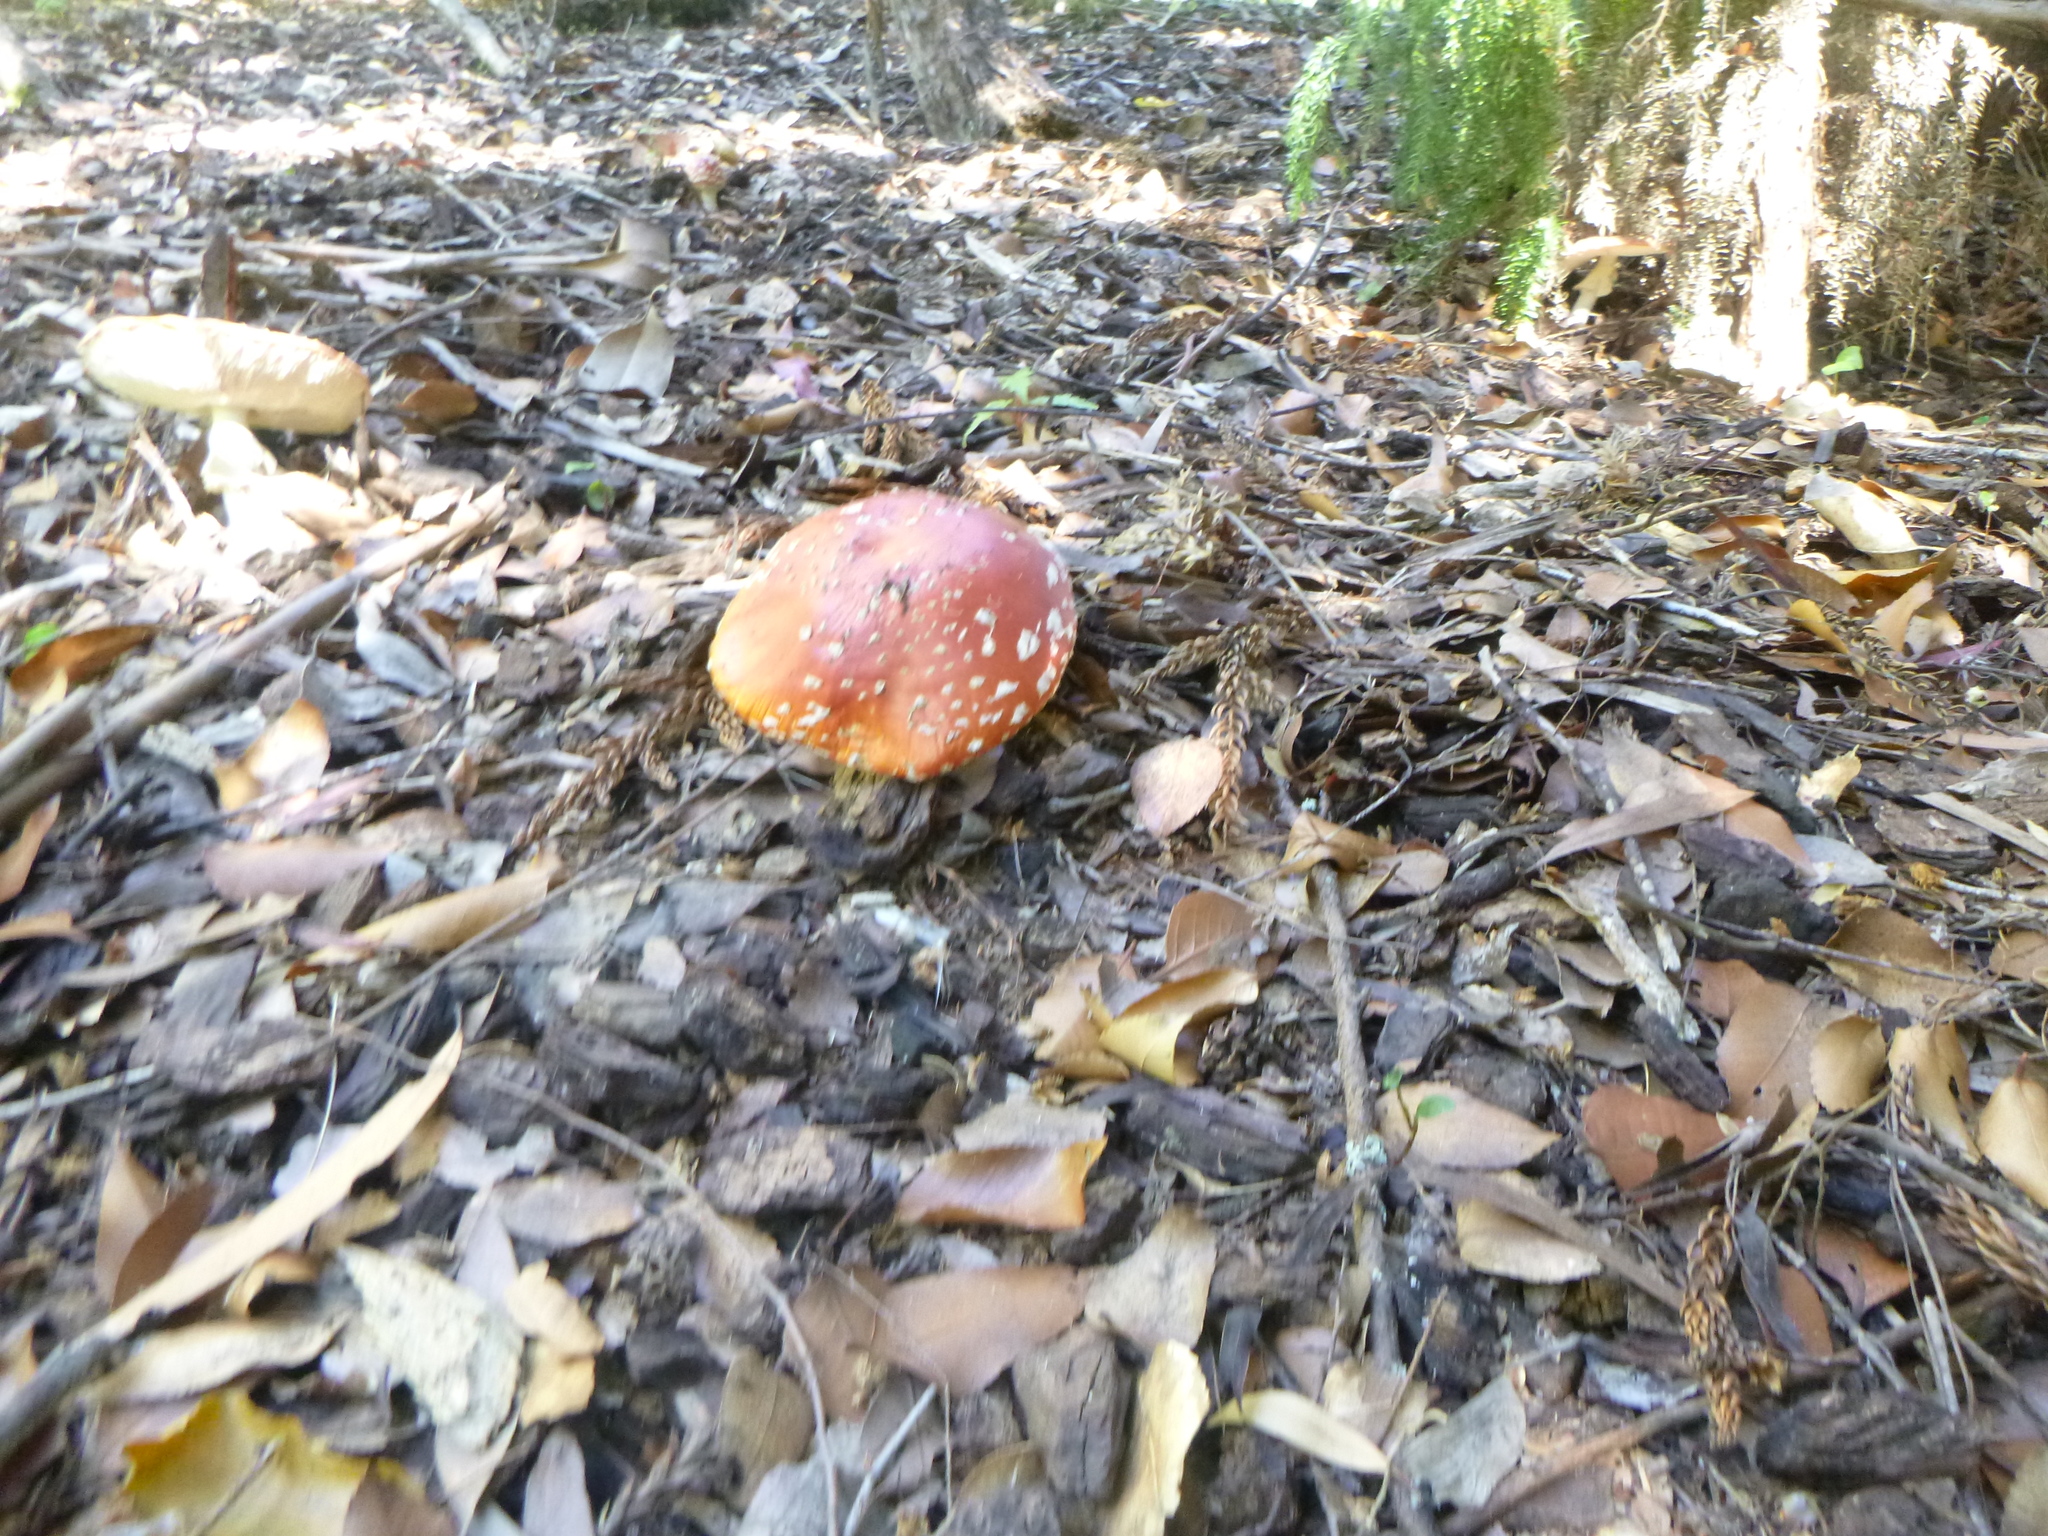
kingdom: Fungi
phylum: Basidiomycota
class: Agaricomycetes
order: Agaricales
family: Amanitaceae
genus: Amanita
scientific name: Amanita muscaria
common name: Fly agaric
